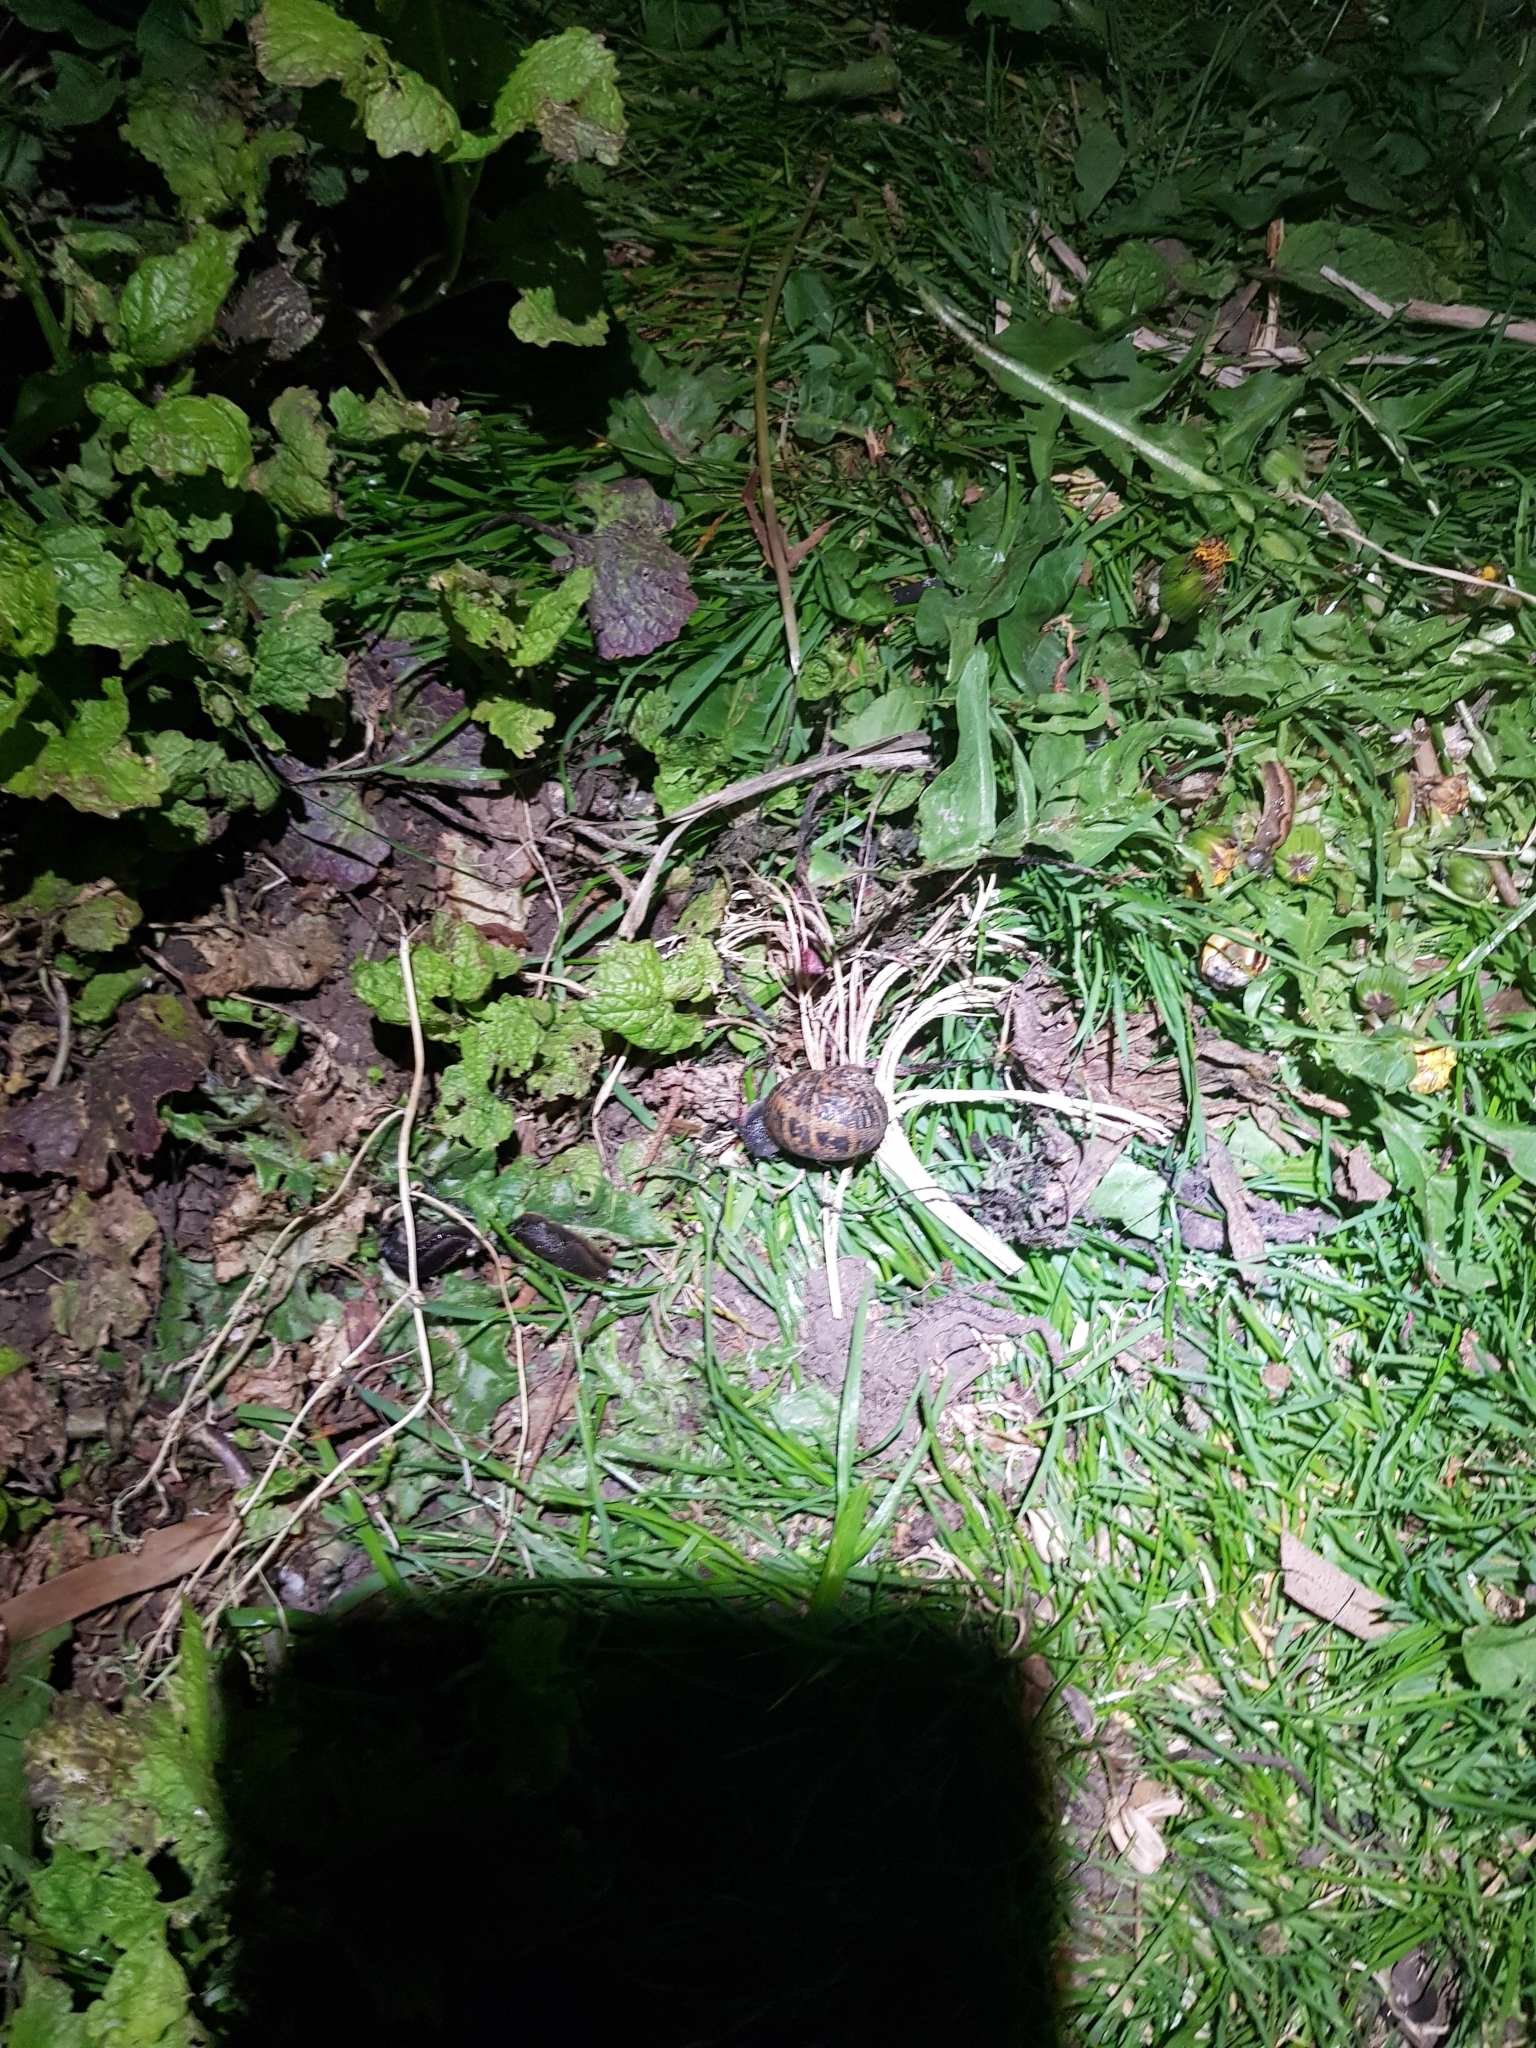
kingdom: Animalia
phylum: Mollusca
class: Gastropoda
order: Stylommatophora
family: Helicidae
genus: Cornu
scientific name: Cornu aspersum
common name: Brown garden snail
